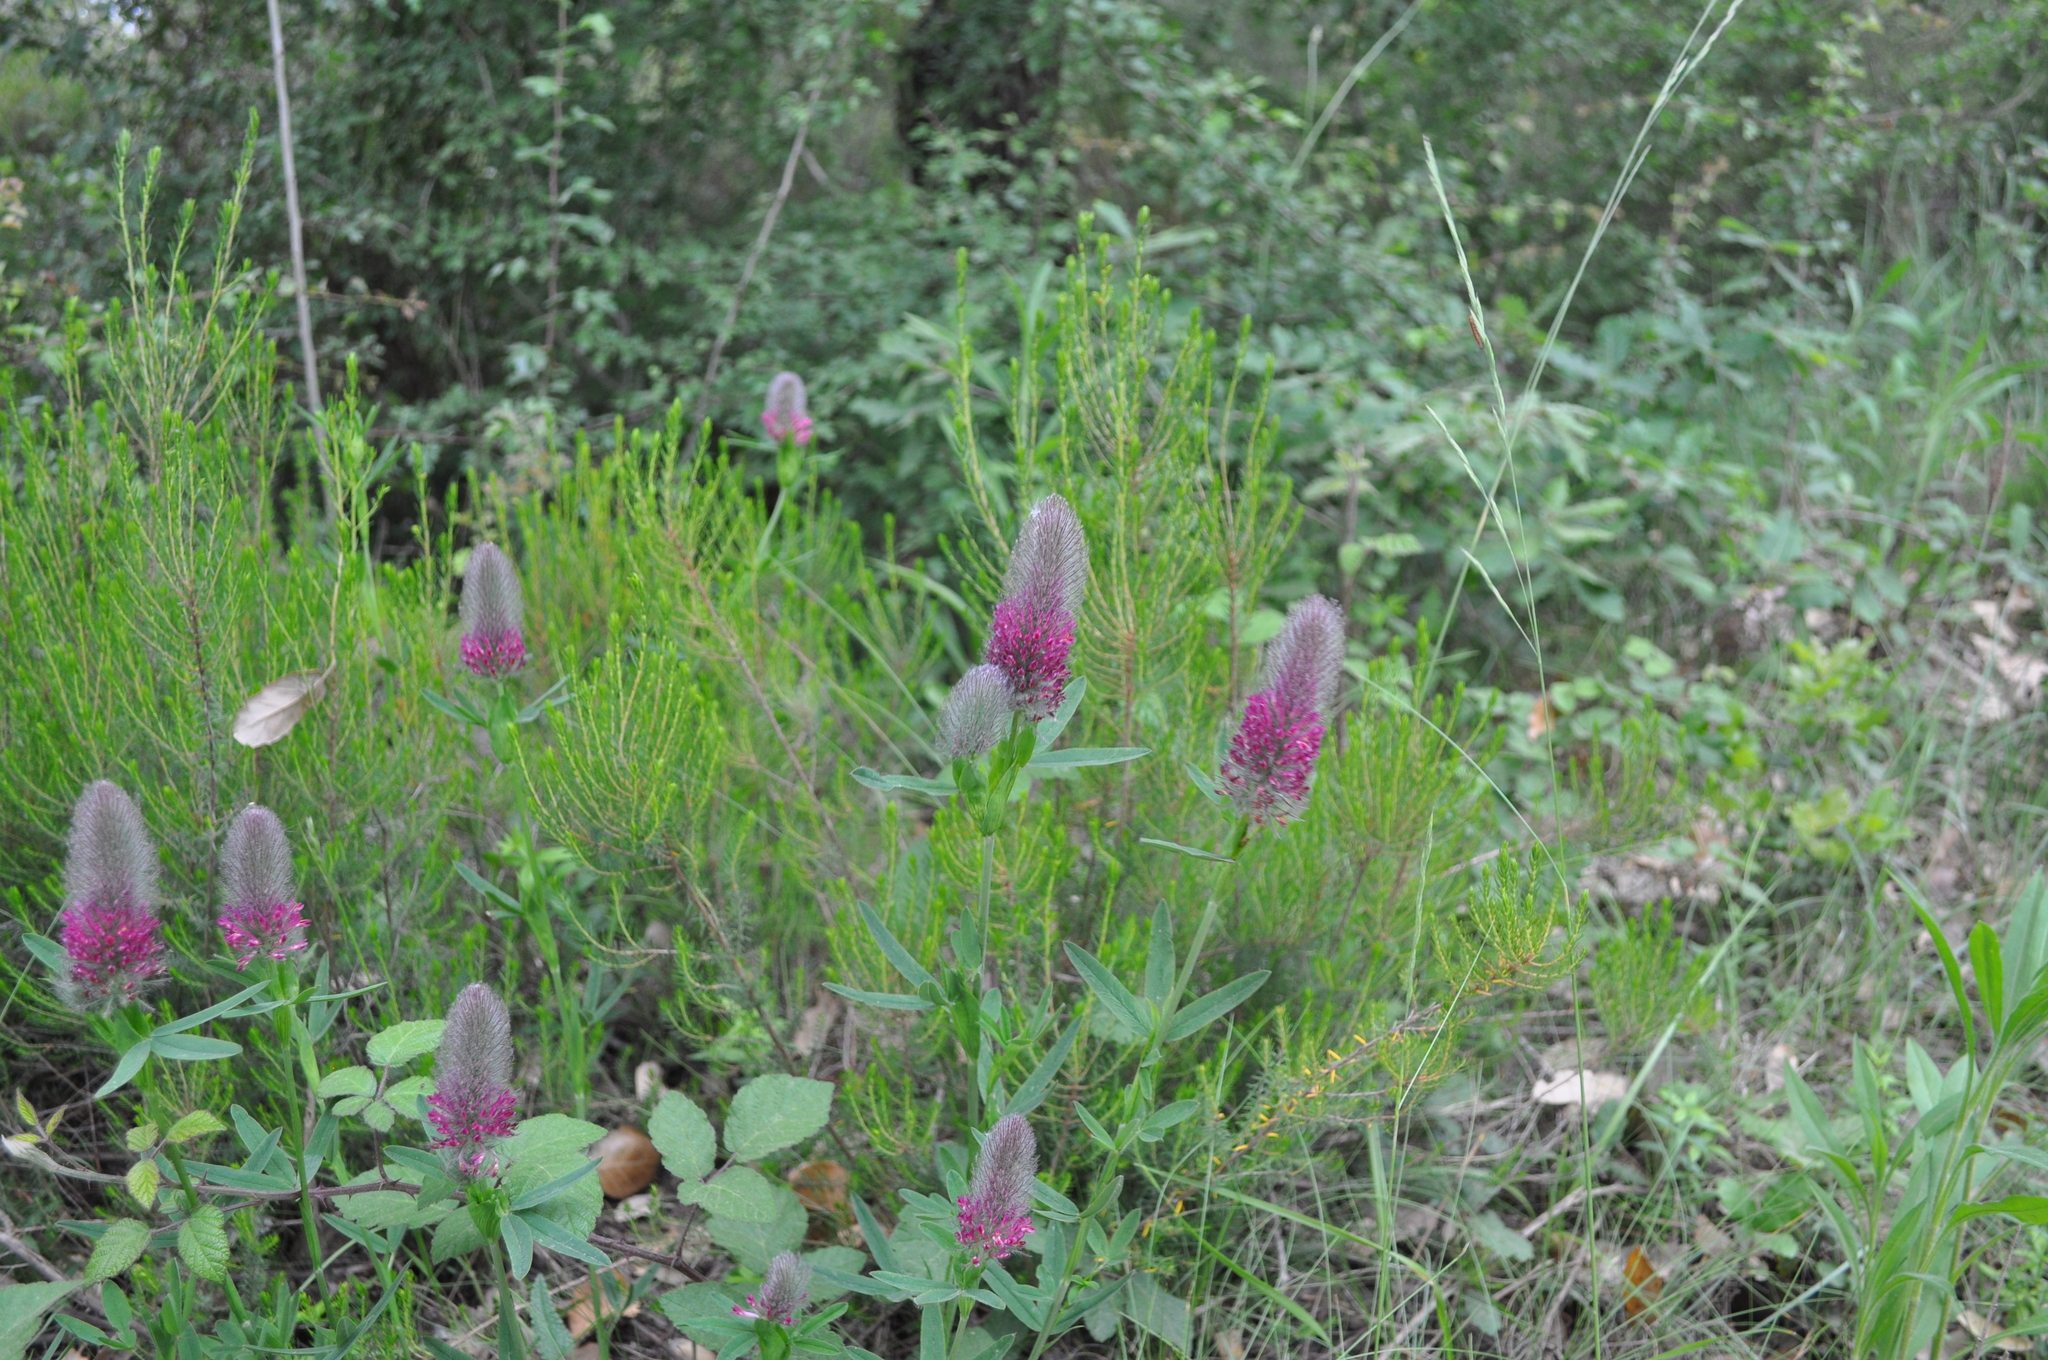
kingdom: Plantae
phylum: Tracheophyta
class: Magnoliopsida
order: Fabales
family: Fabaceae
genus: Trifolium
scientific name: Trifolium rubens
